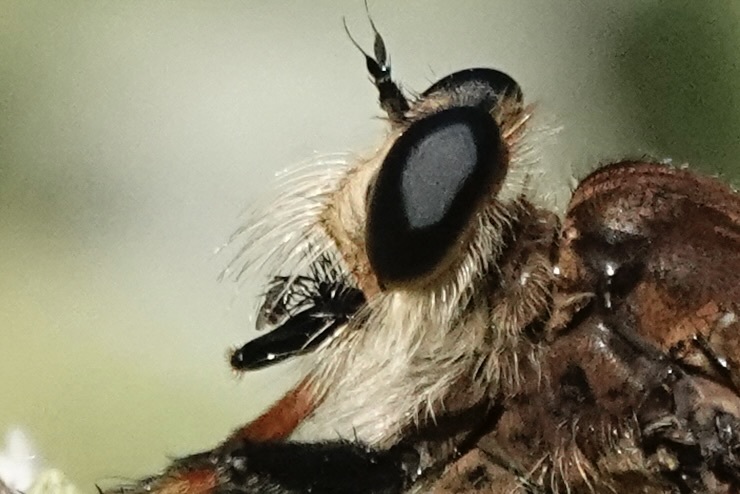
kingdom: Animalia
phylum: Arthropoda
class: Insecta
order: Diptera
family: Asilidae
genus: Promachus
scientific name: Promachus rufipes
